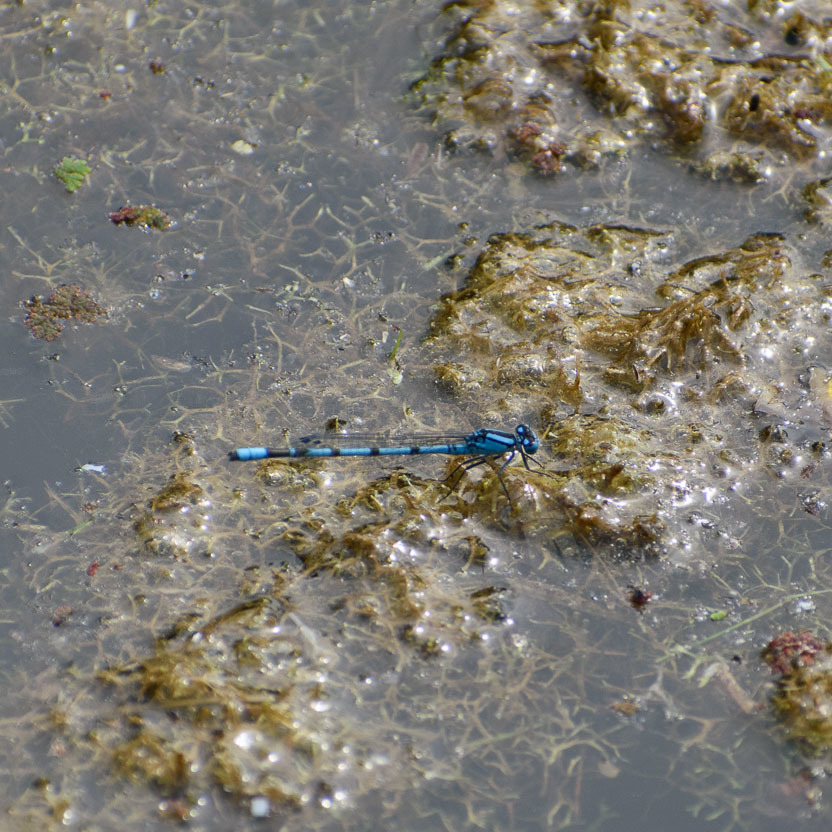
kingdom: Animalia
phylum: Arthropoda
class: Insecta
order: Odonata
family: Coenagrionidae
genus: Enallagma
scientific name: Enallagma cyathigerum
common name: Common blue damselfly
